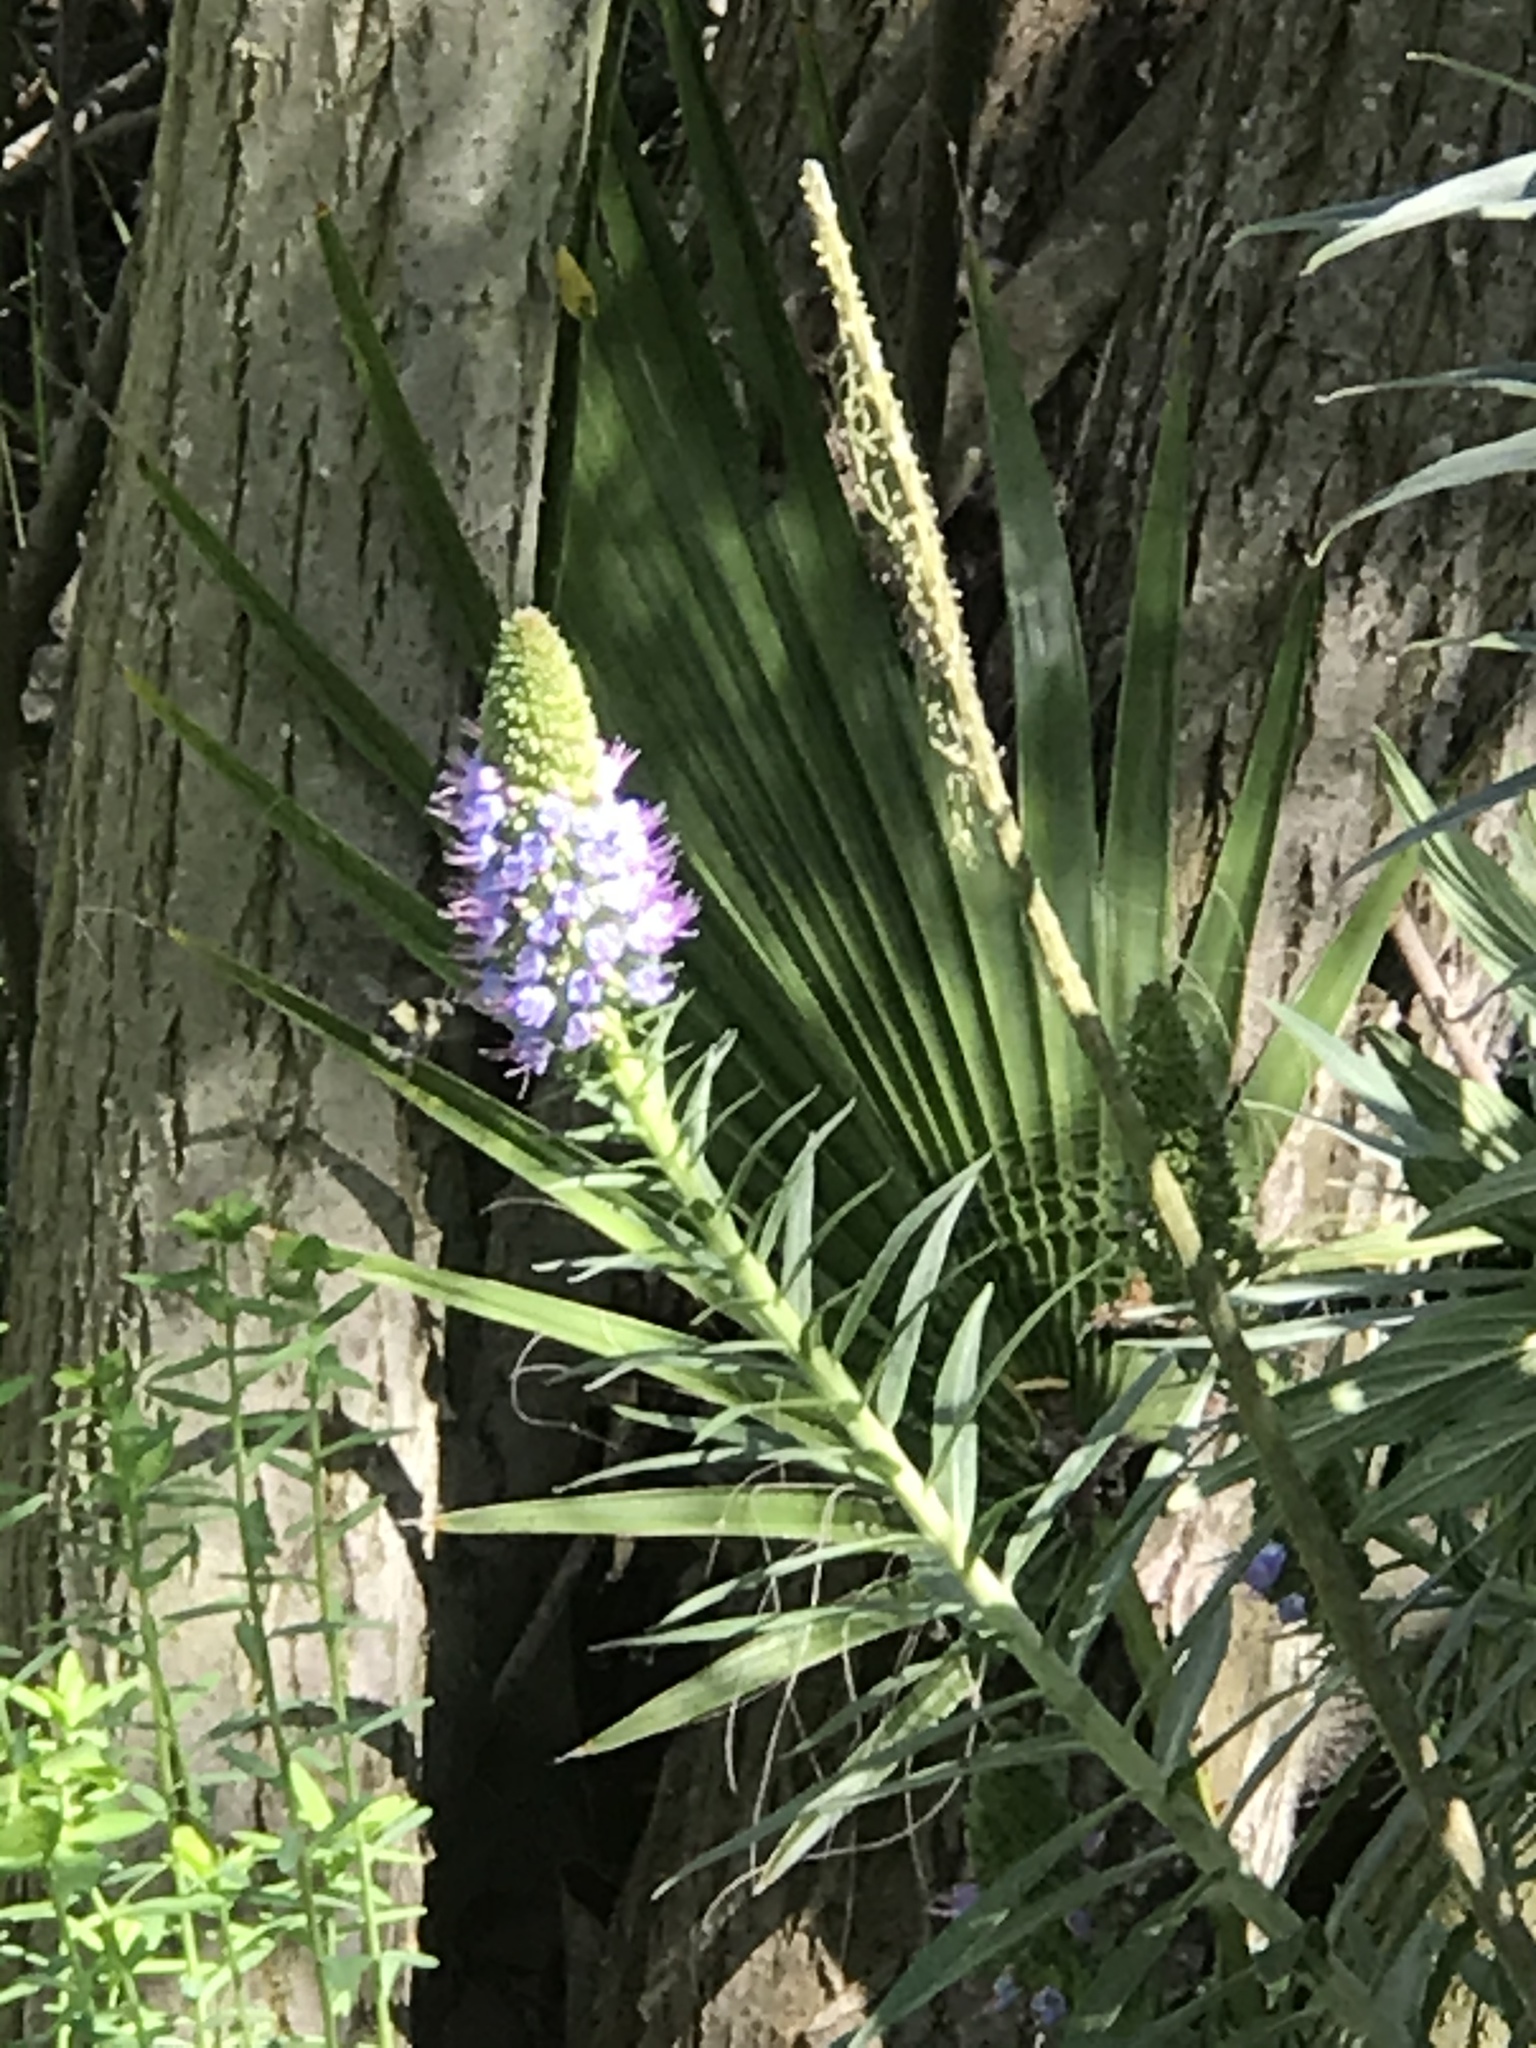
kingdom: Animalia
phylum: Arthropoda
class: Insecta
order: Hymenoptera
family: Apidae
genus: Bombus
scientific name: Bombus melanopygus
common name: Black tail bumble bee
